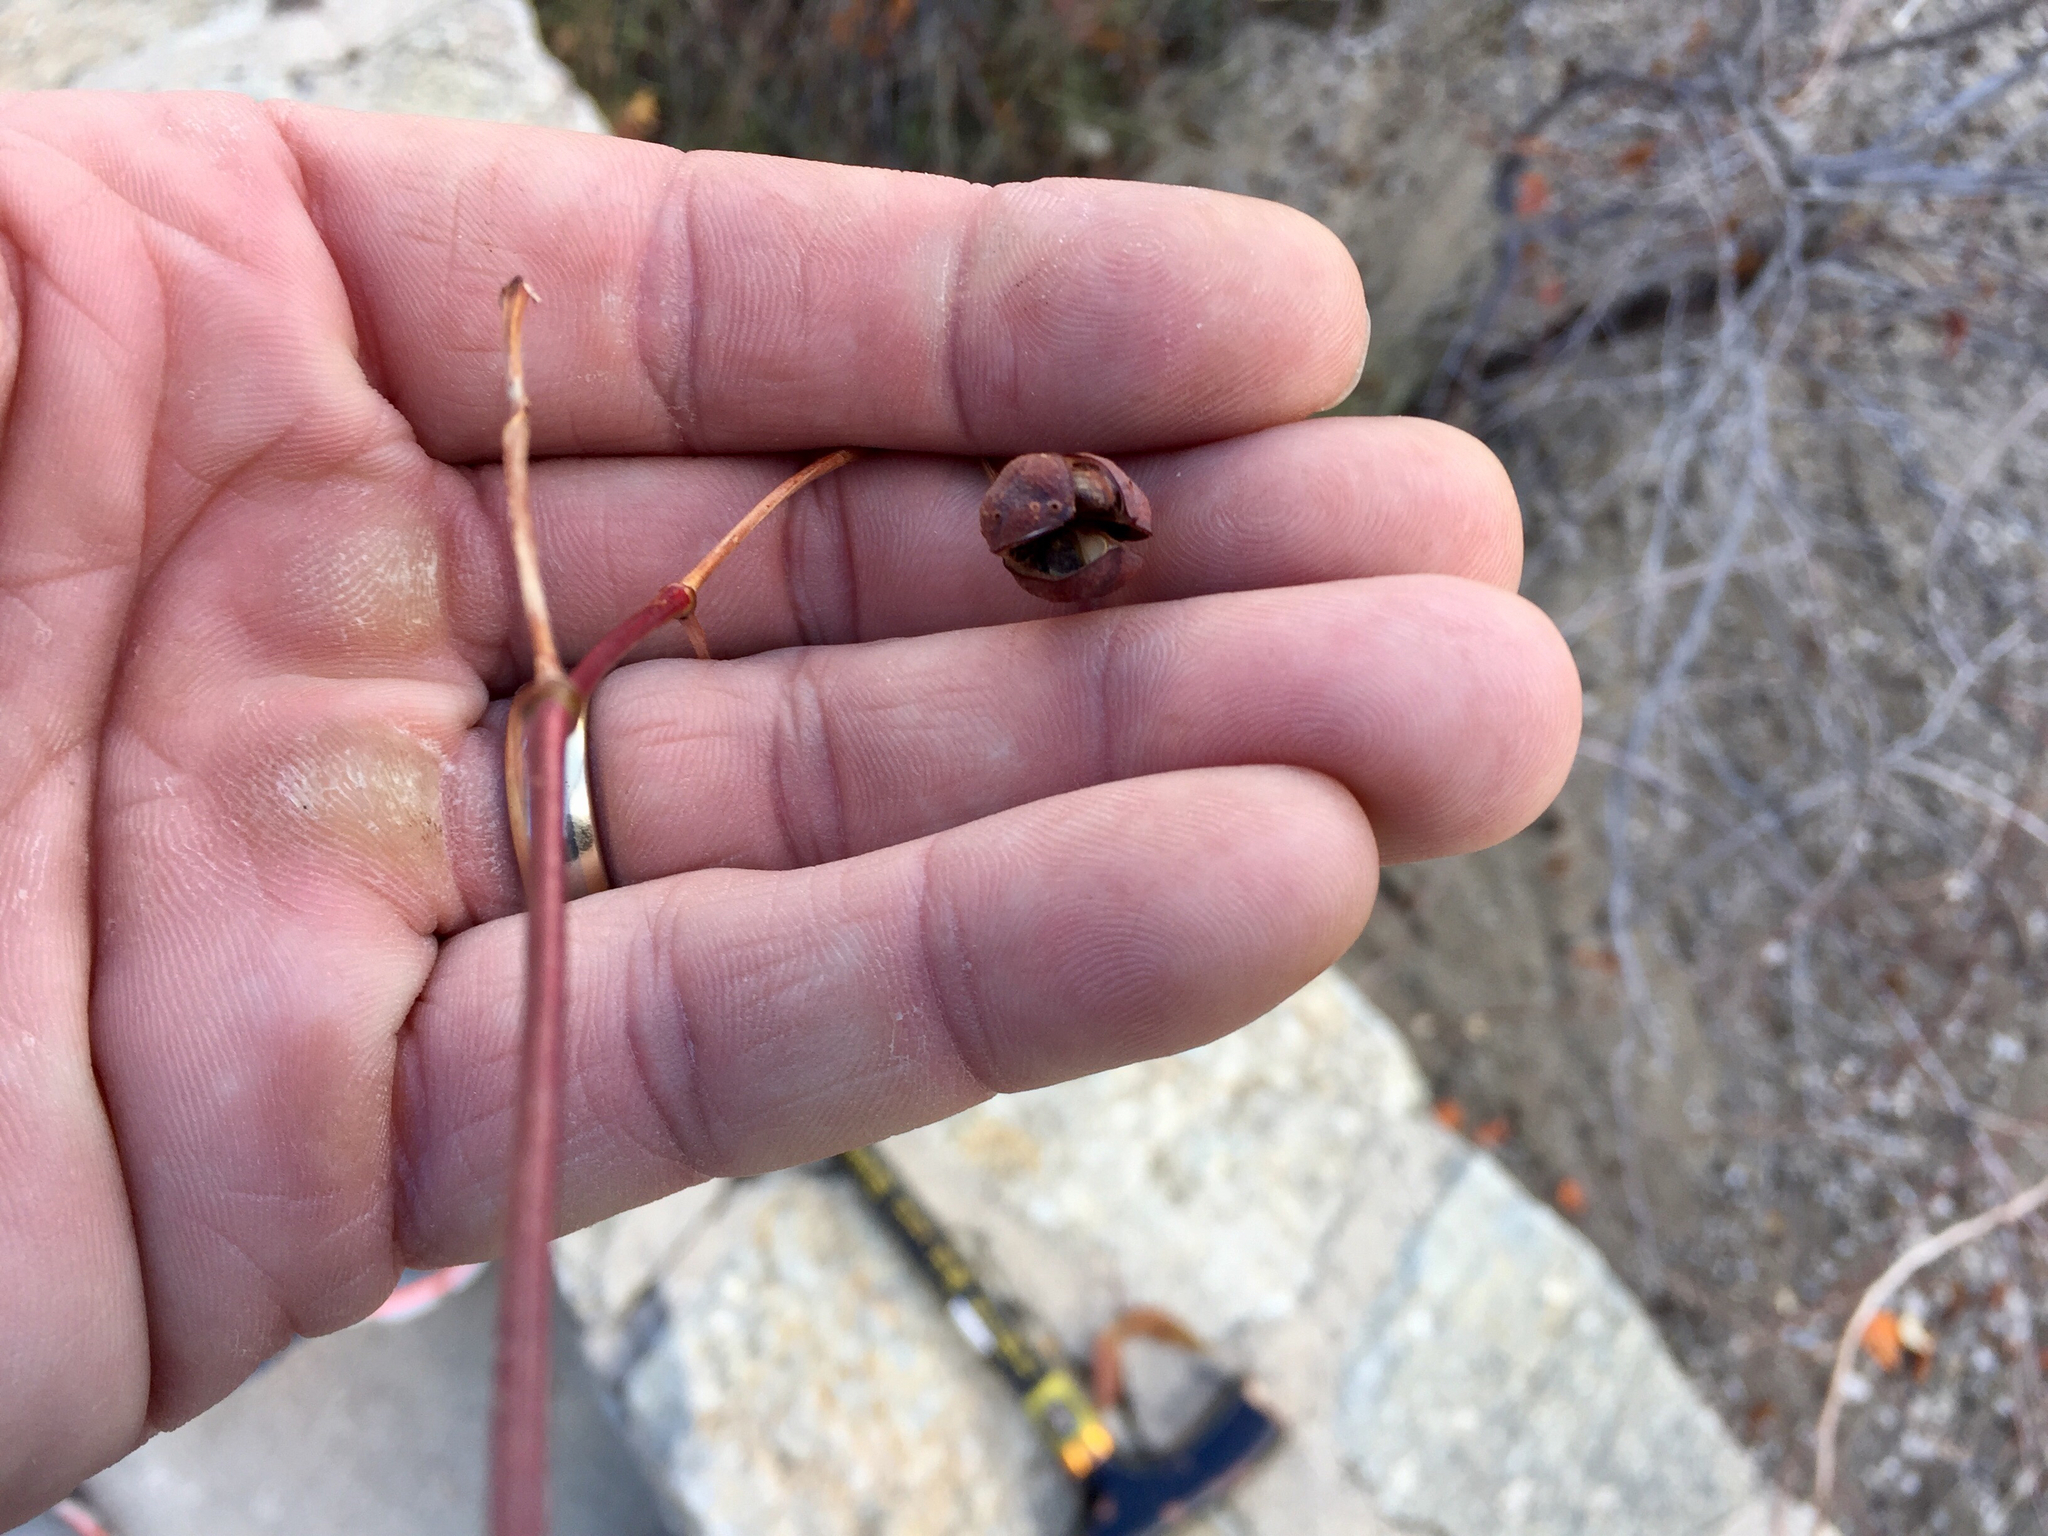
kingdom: Plantae
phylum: Tracheophyta
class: Magnoliopsida
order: Malvales
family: Malvaceae
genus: Gossypium
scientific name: Gossypium thurberi
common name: Desert cotton
